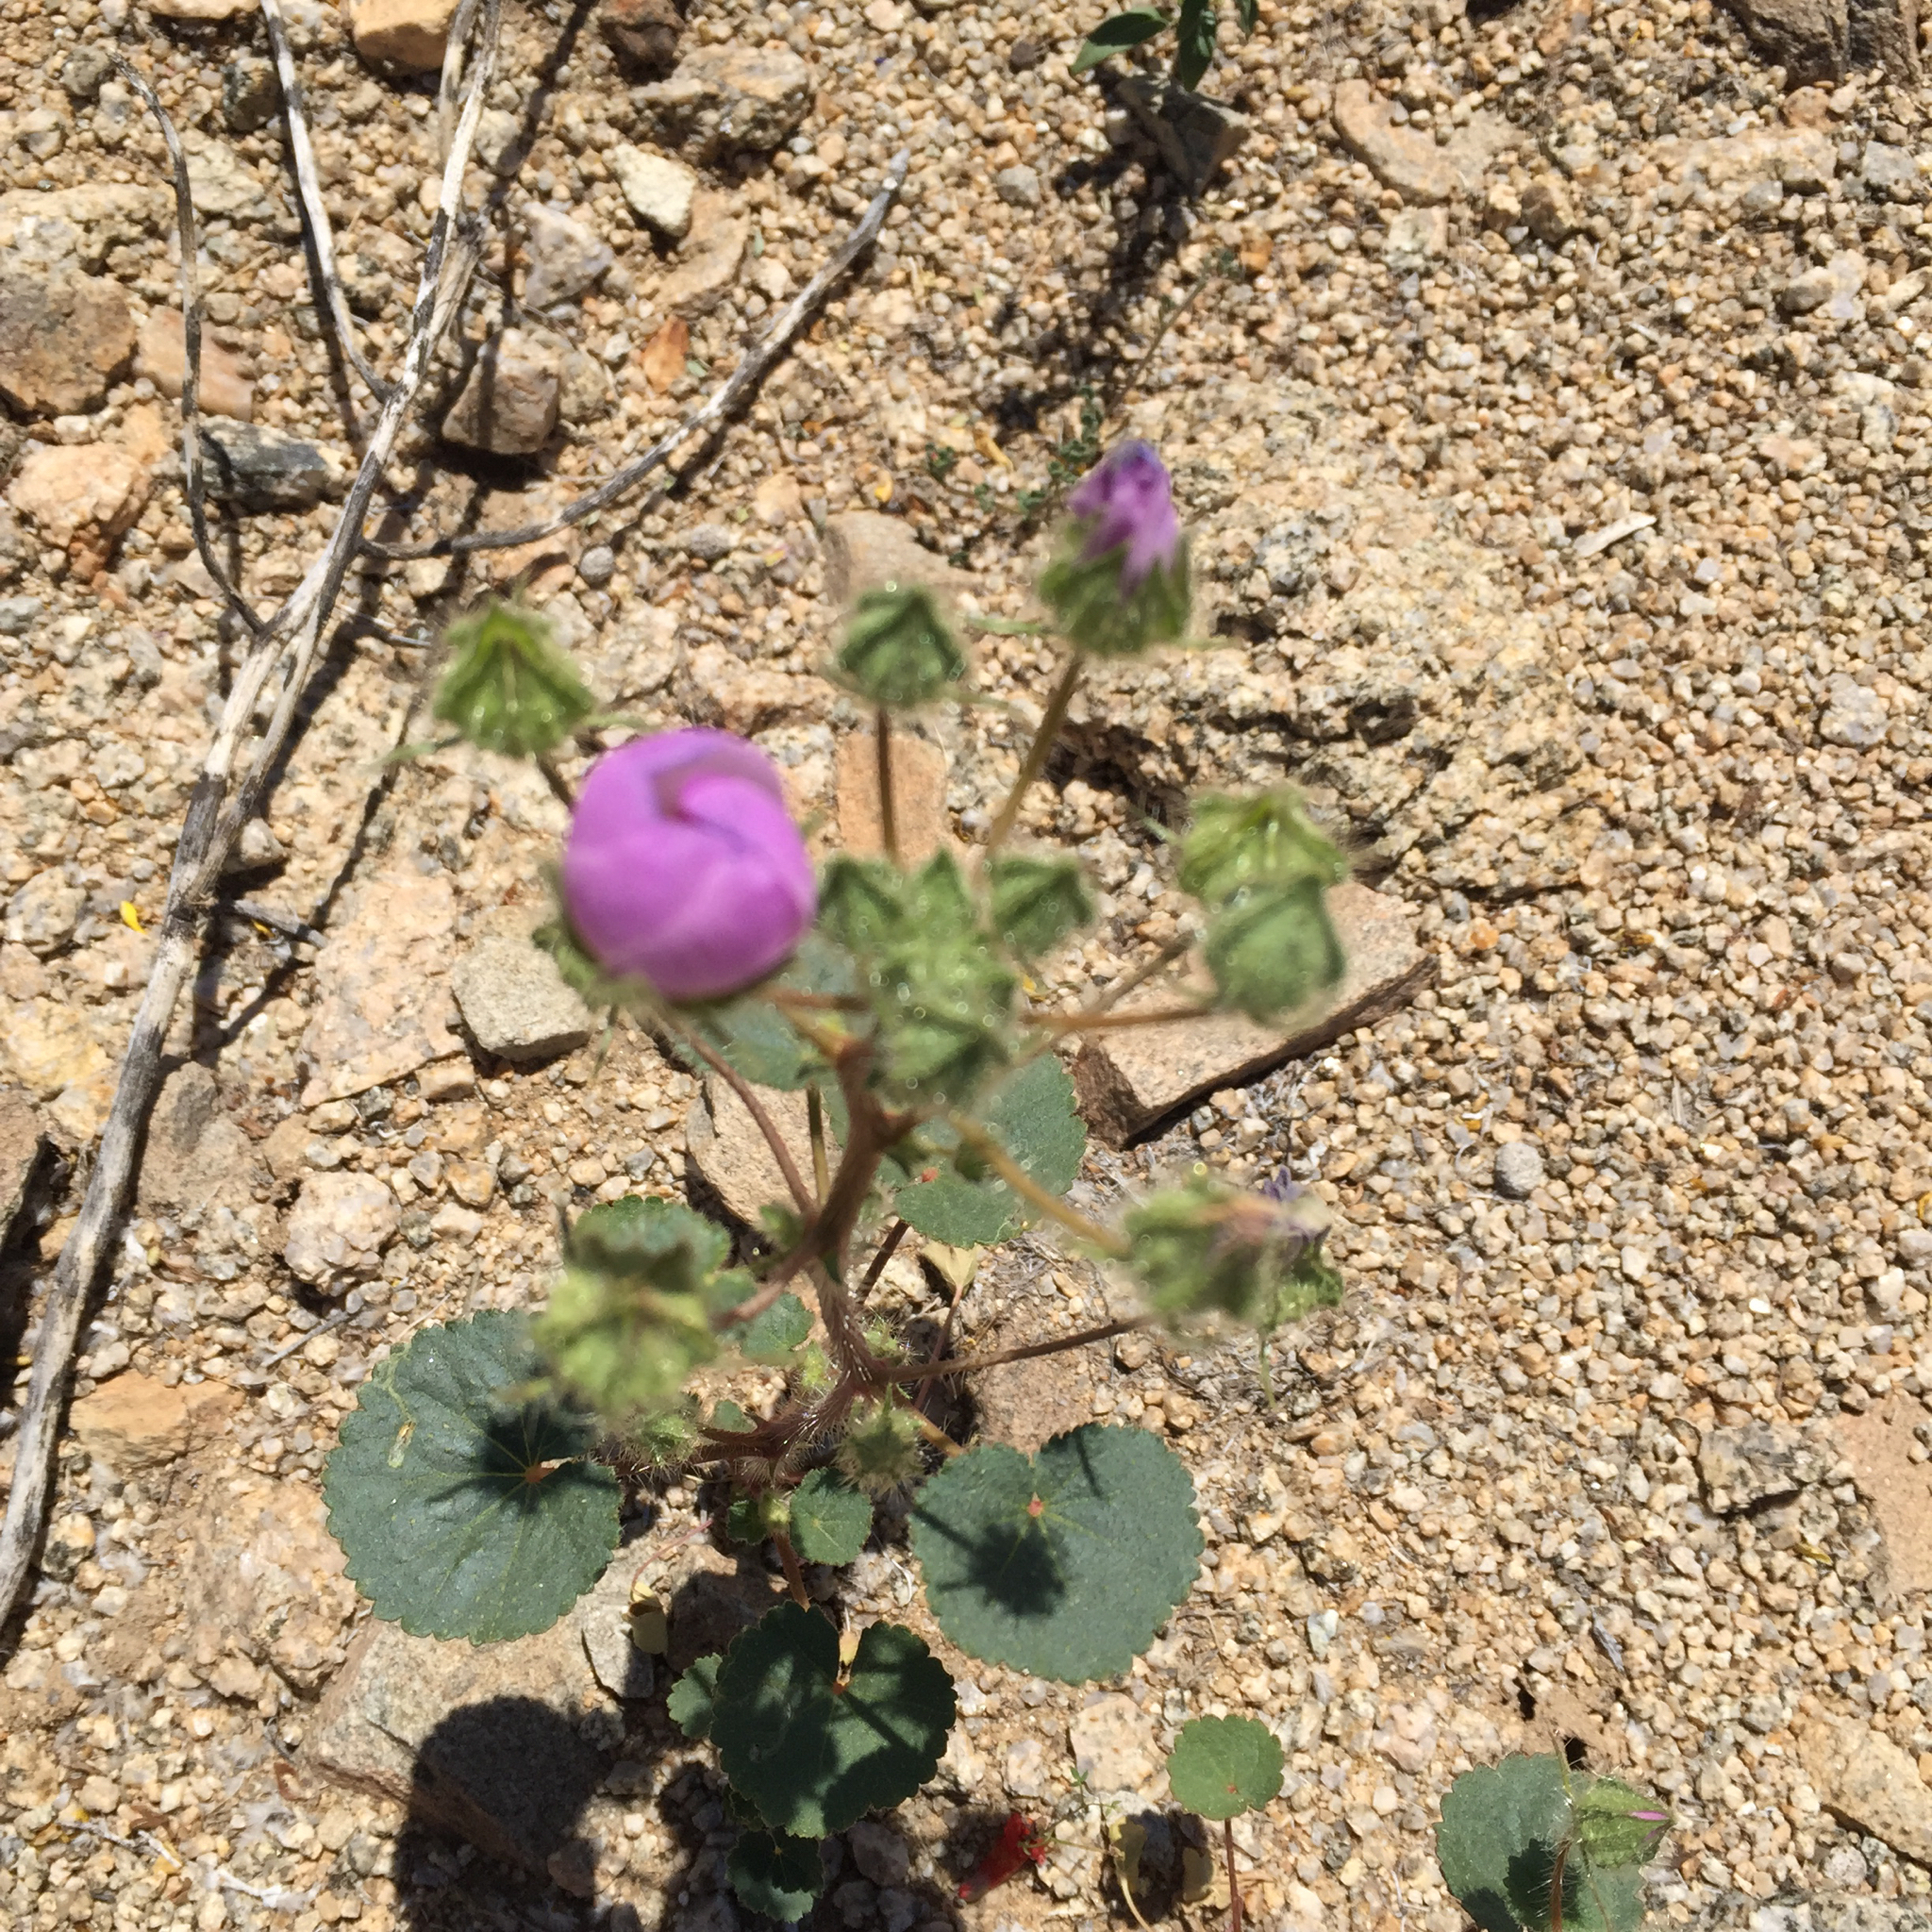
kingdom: Plantae
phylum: Tracheophyta
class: Magnoliopsida
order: Malvales
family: Malvaceae
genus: Eremalche
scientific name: Eremalche rotundifolia
